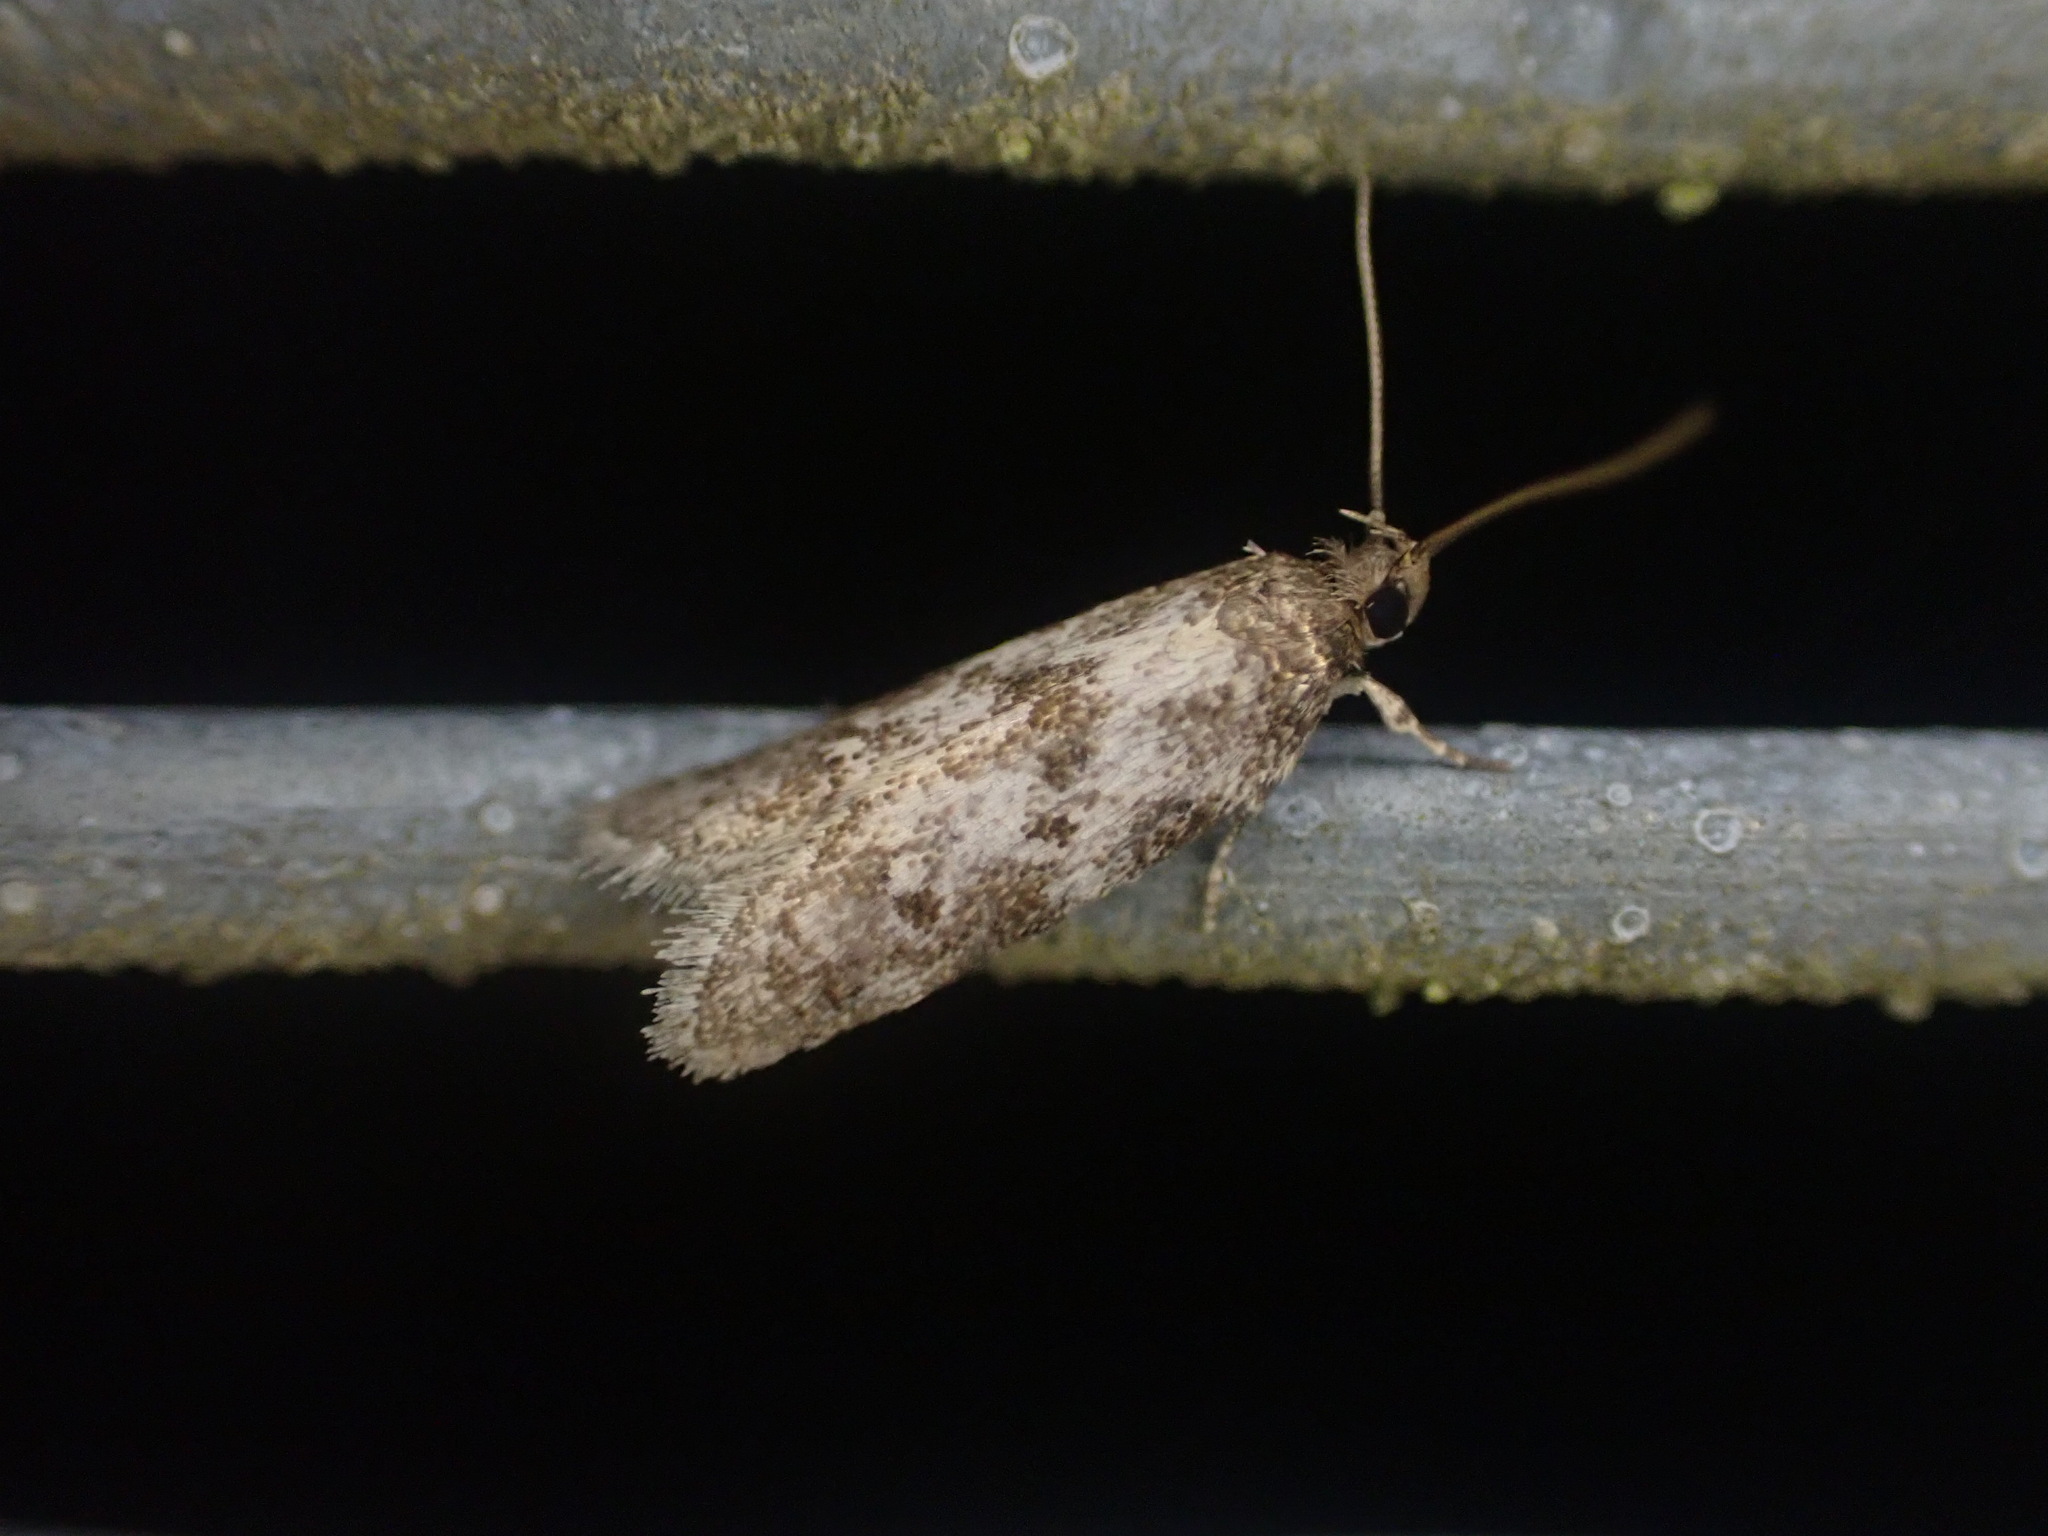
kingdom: Animalia
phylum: Arthropoda
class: Insecta
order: Lepidoptera
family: Oecophoridae
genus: Trachypepla
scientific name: Trachypepla photinella
